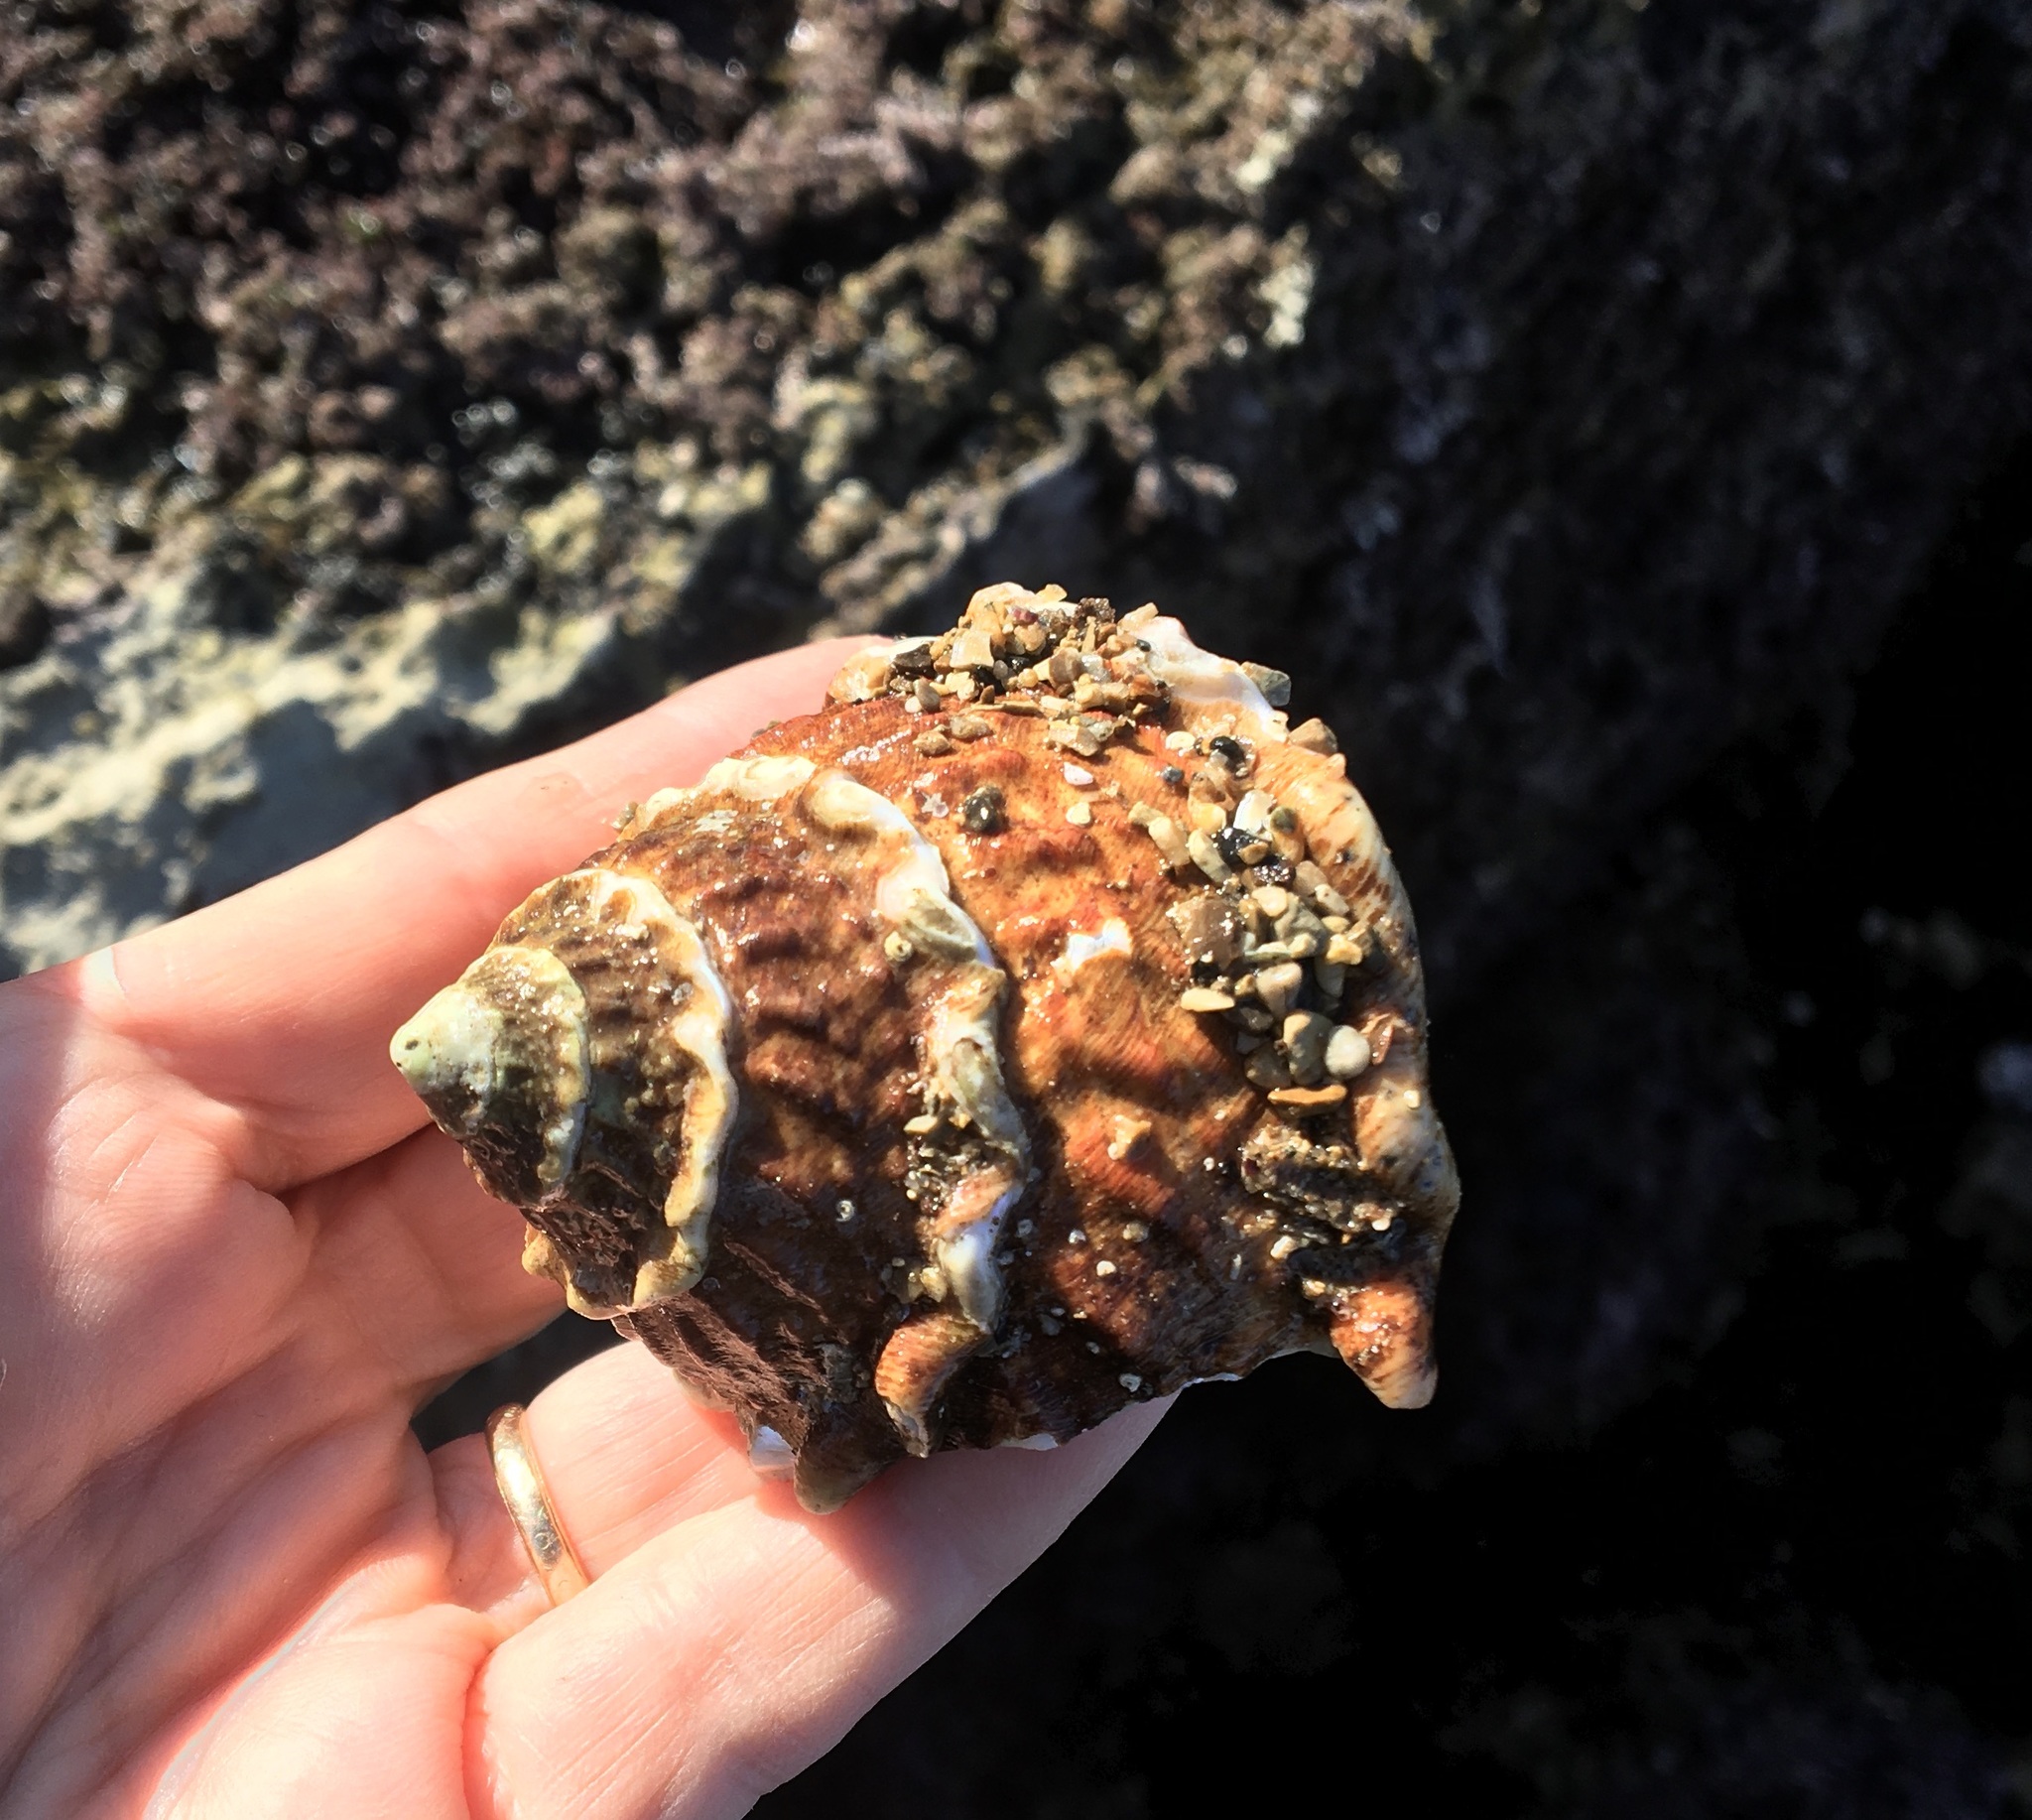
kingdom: Animalia
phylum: Mollusca
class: Gastropoda
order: Trochida
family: Turbinidae
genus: Megastraea
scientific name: Megastraea undosa
